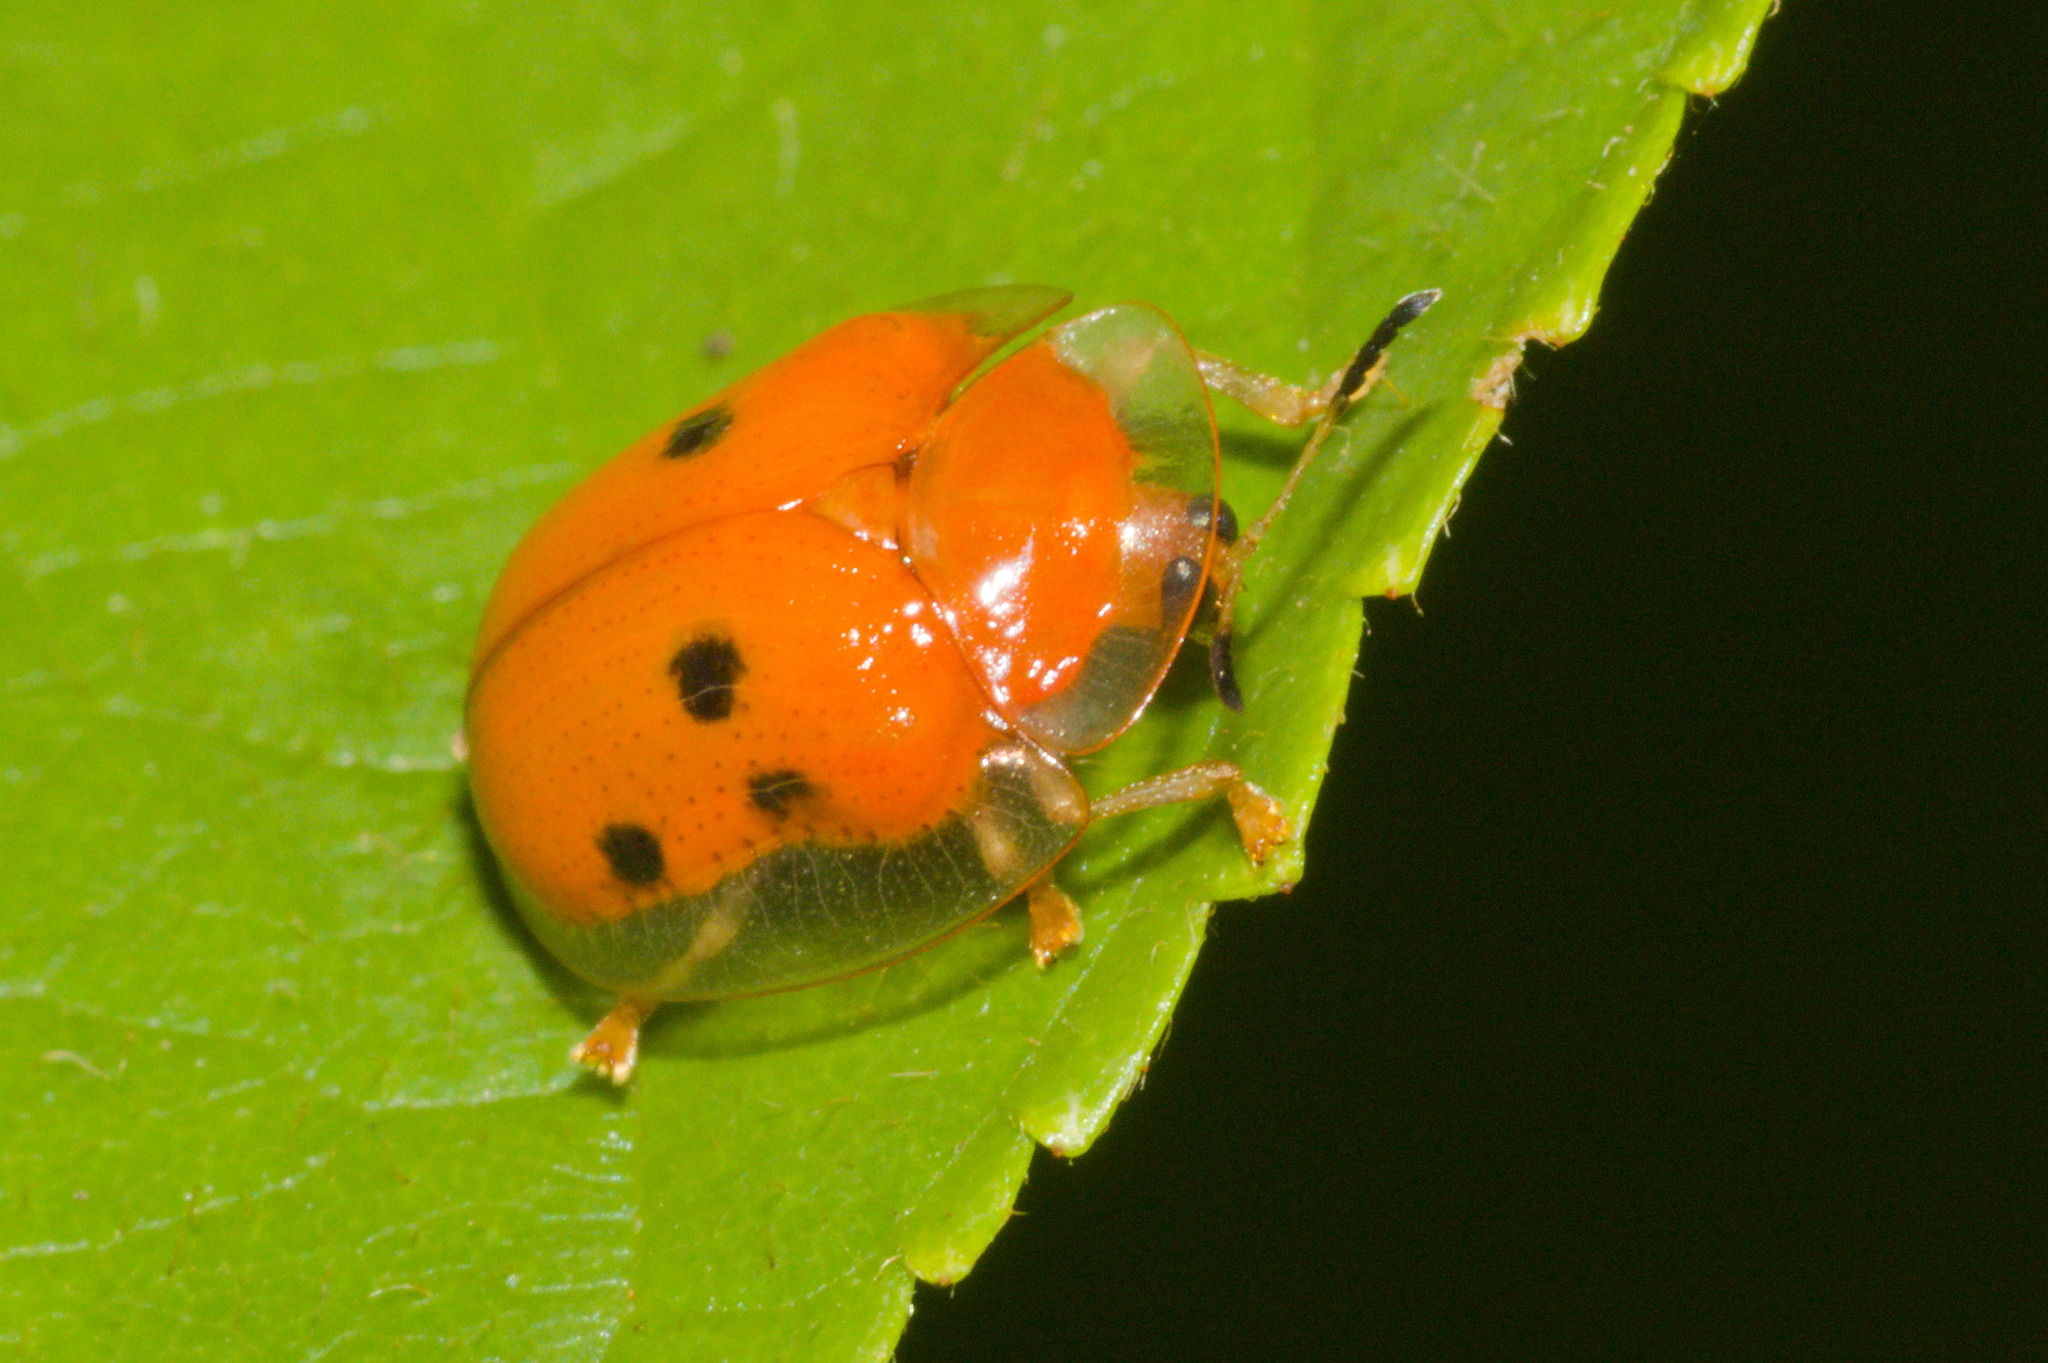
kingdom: Animalia
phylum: Arthropoda
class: Insecta
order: Coleoptera
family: Chrysomelidae
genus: Charidotella
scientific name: Charidotella sexpunctata
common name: Golden tortoise beetle
